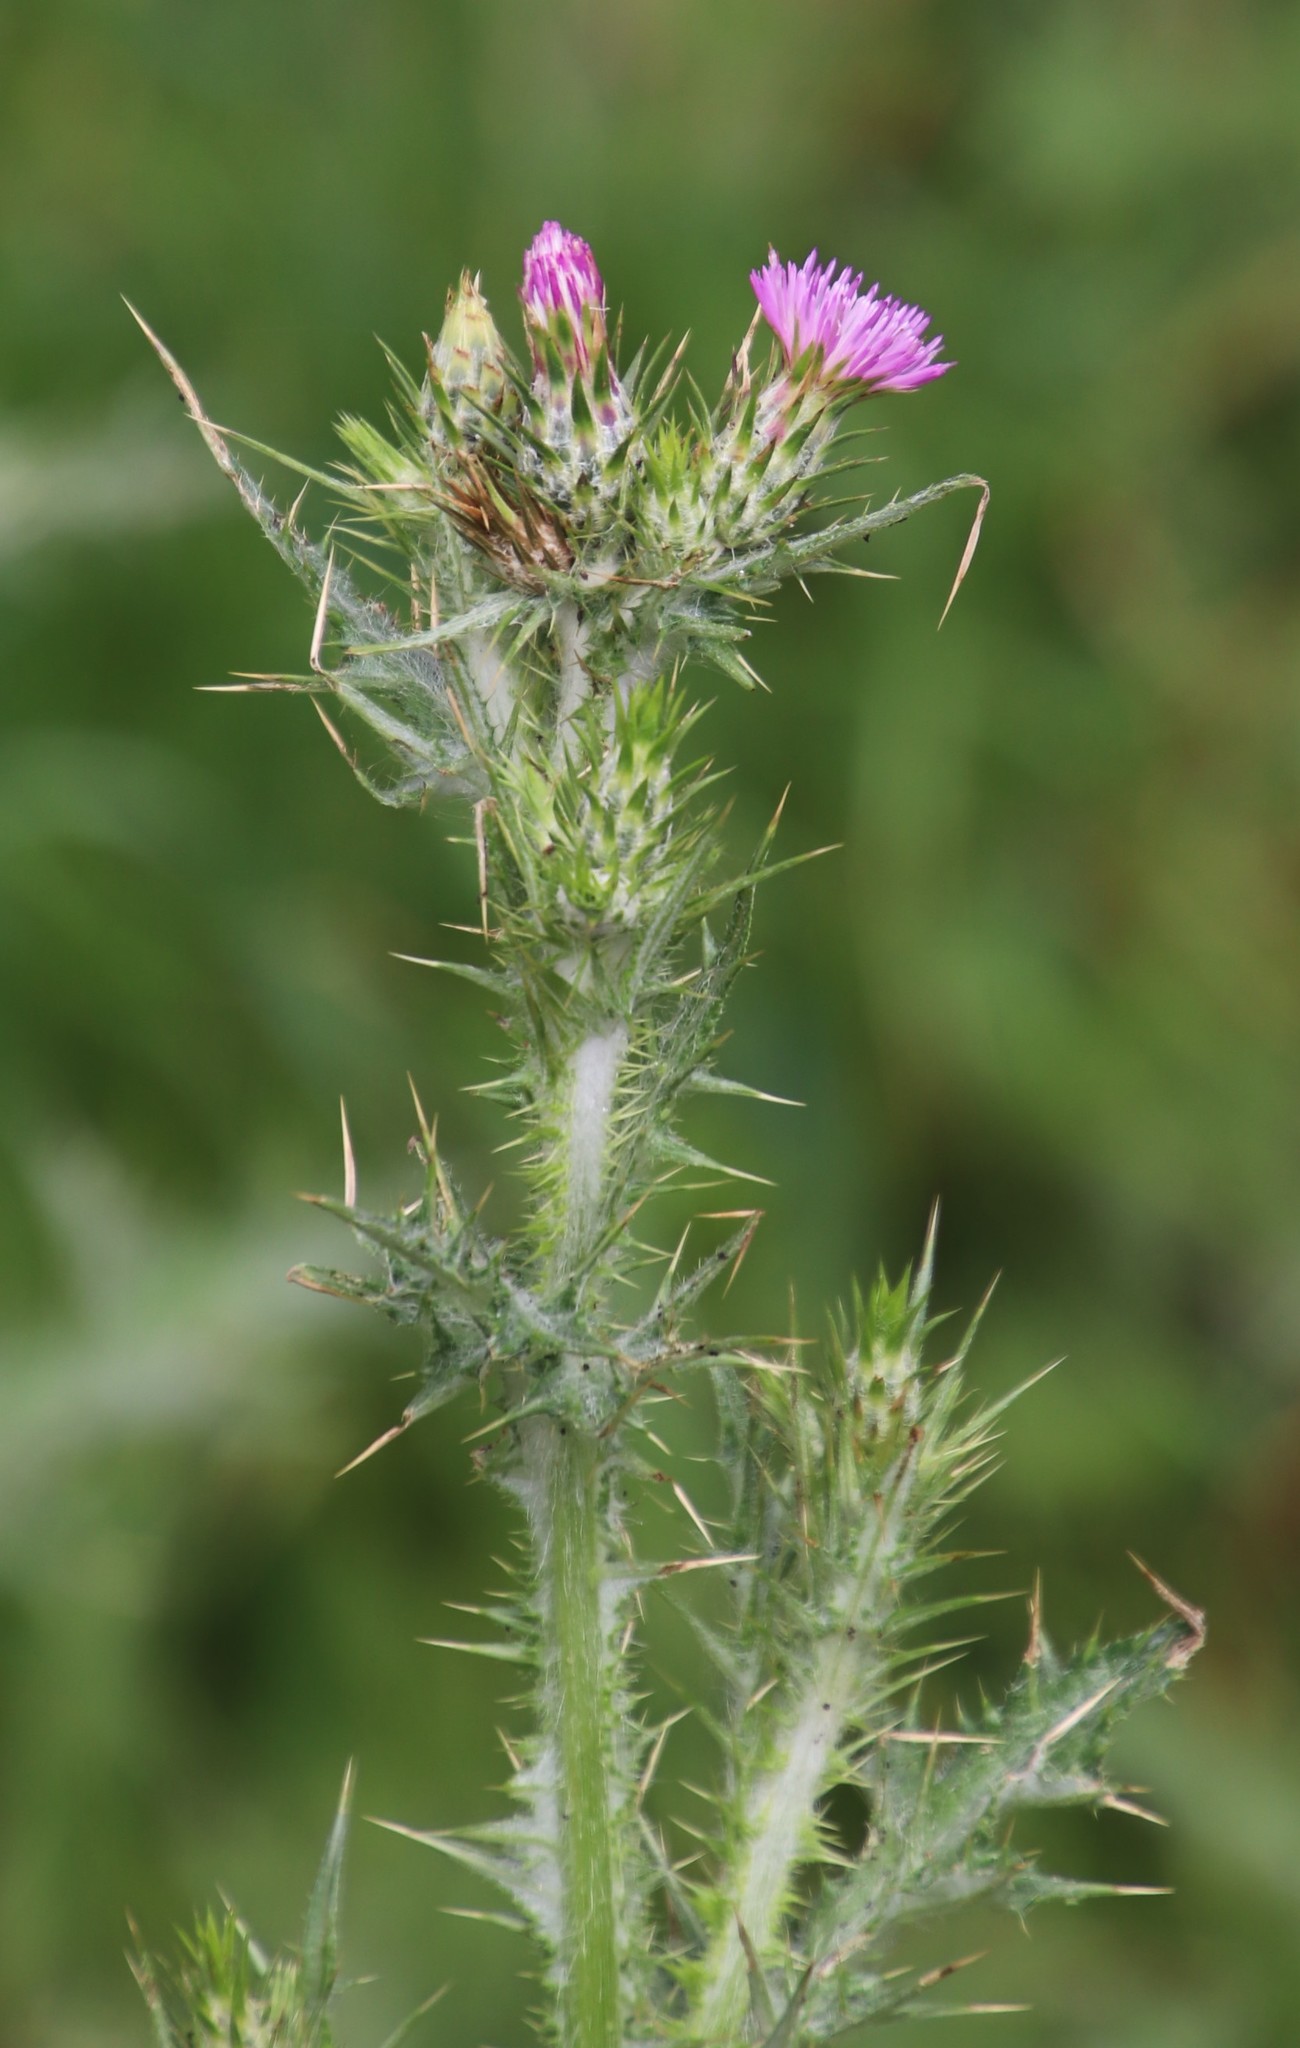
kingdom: Plantae
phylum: Tracheophyta
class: Magnoliopsida
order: Asterales
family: Asteraceae
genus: Carduus
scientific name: Carduus pycnocephalus
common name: Plymouth thistle
